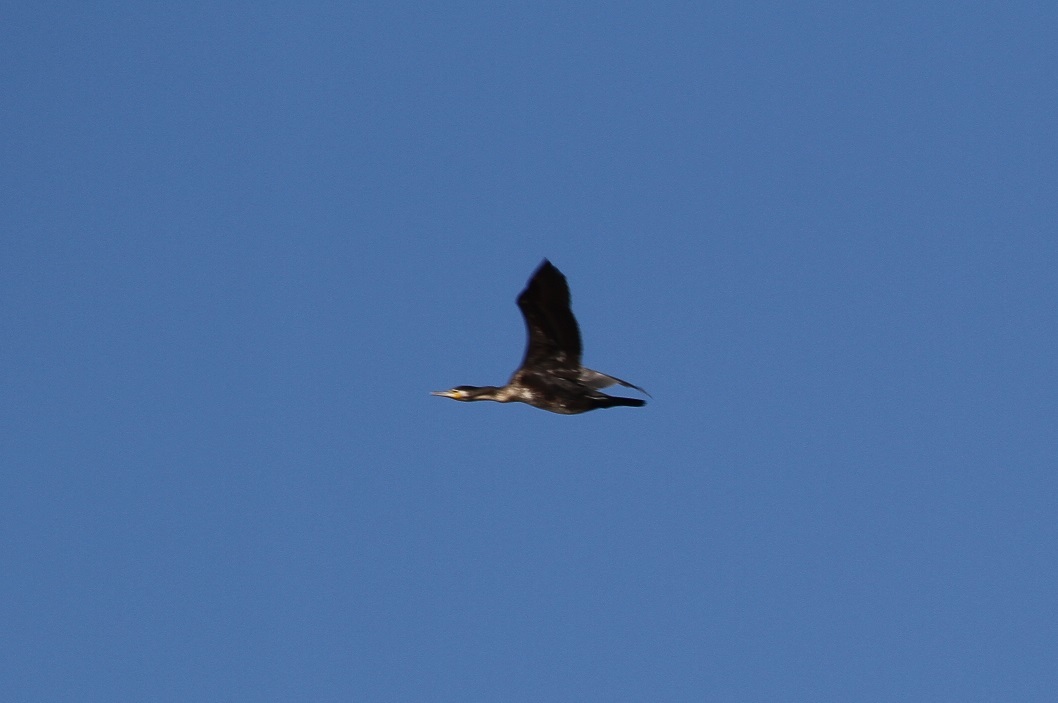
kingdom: Animalia
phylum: Chordata
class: Aves
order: Suliformes
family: Phalacrocoracidae
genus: Phalacrocorax
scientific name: Phalacrocorax carbo
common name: Great cormorant
